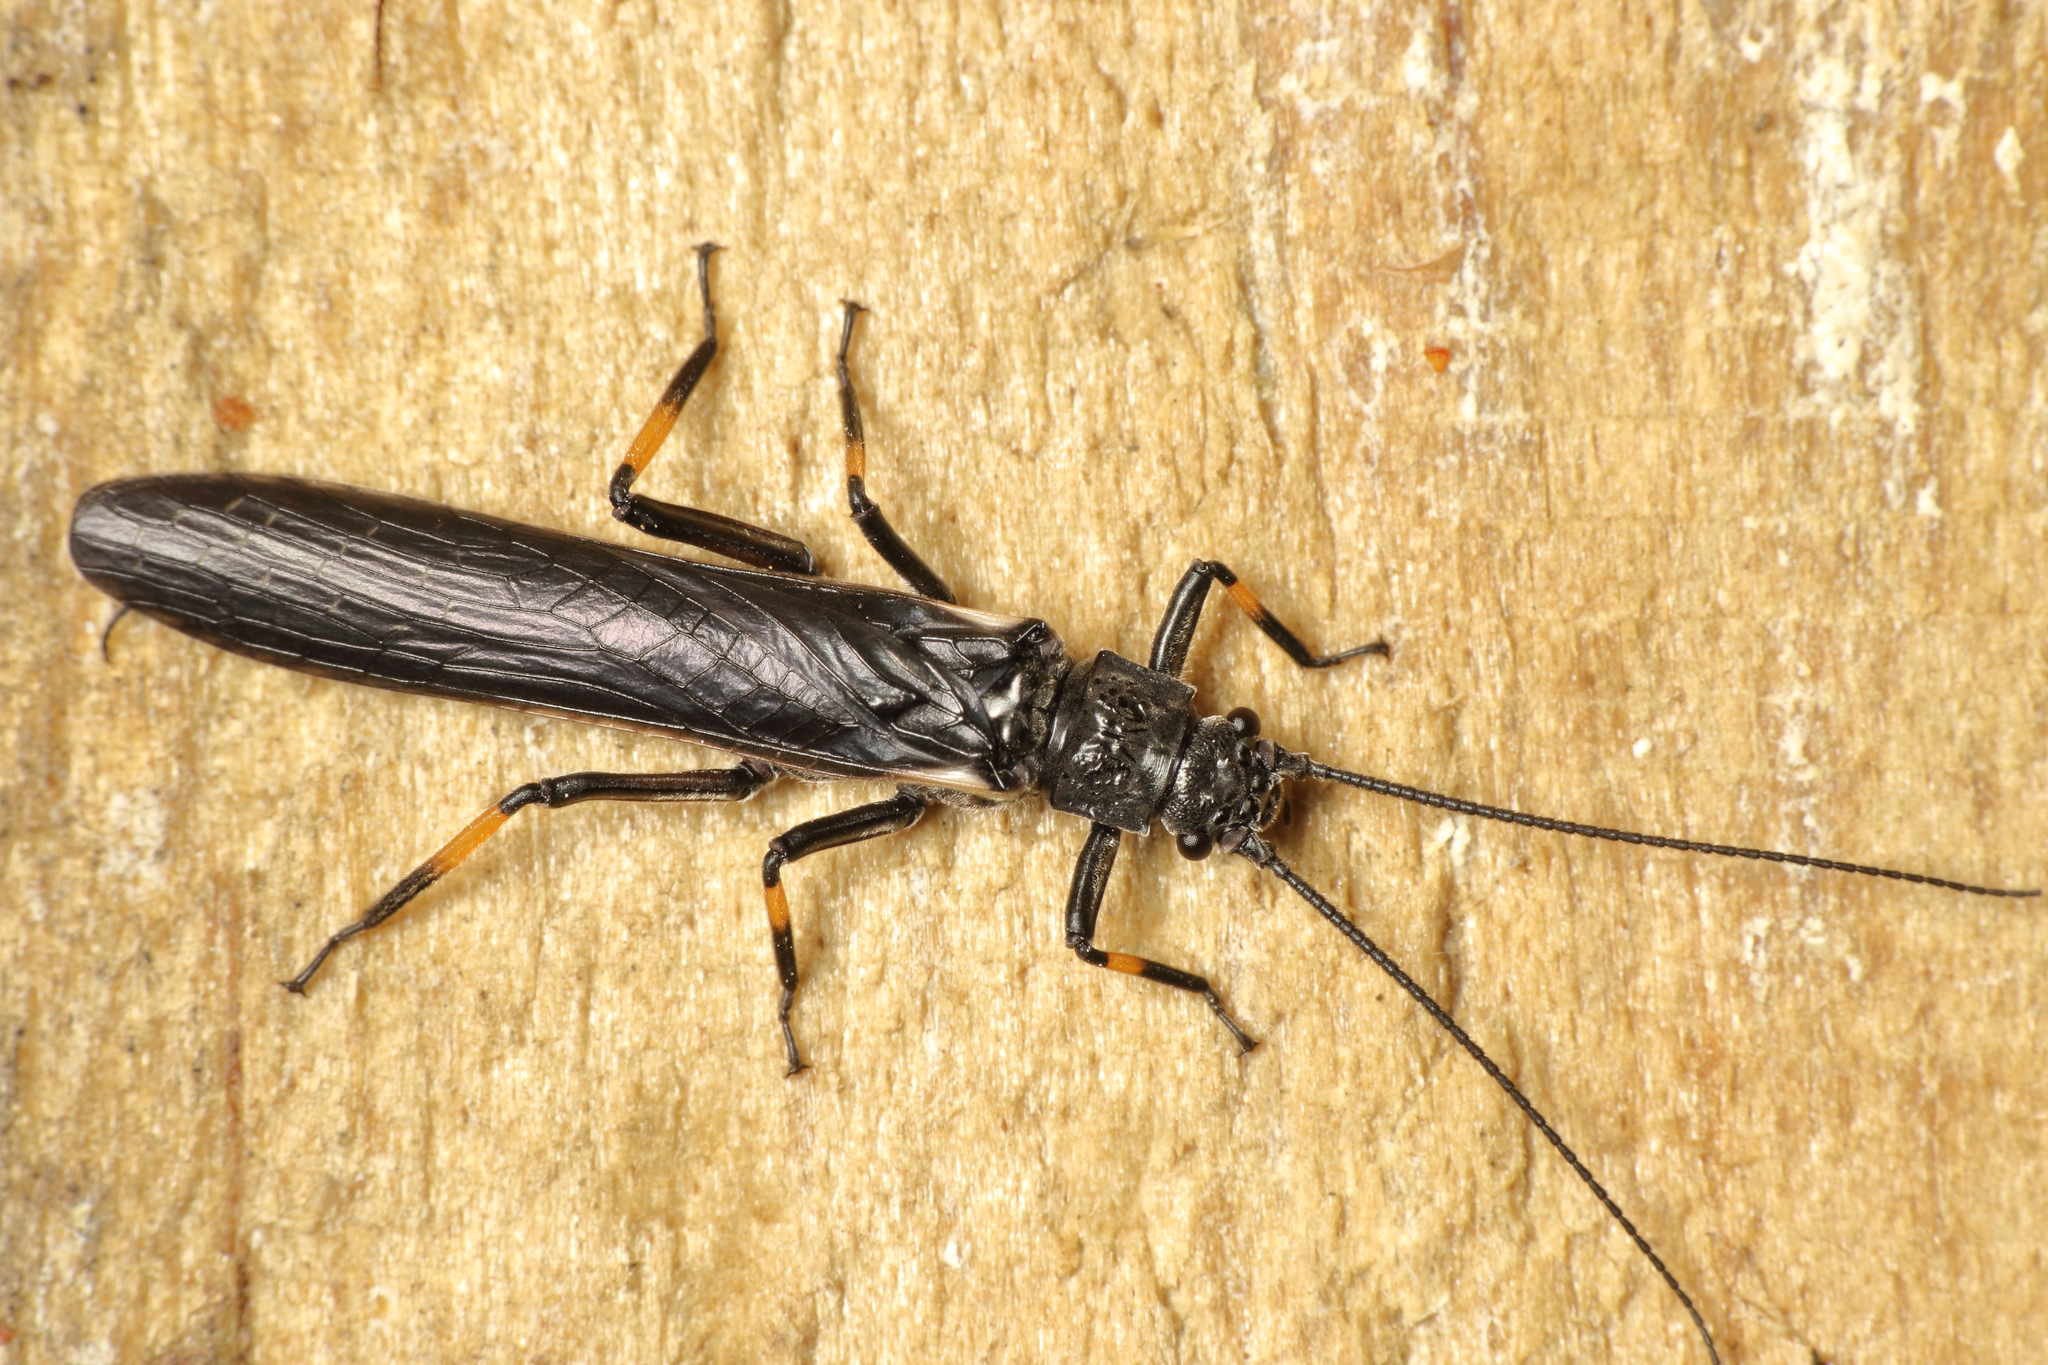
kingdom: Animalia
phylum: Arthropoda
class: Insecta
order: Plecoptera
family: Austroperlidae
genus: Austroperla
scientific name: Austroperla cyrene
